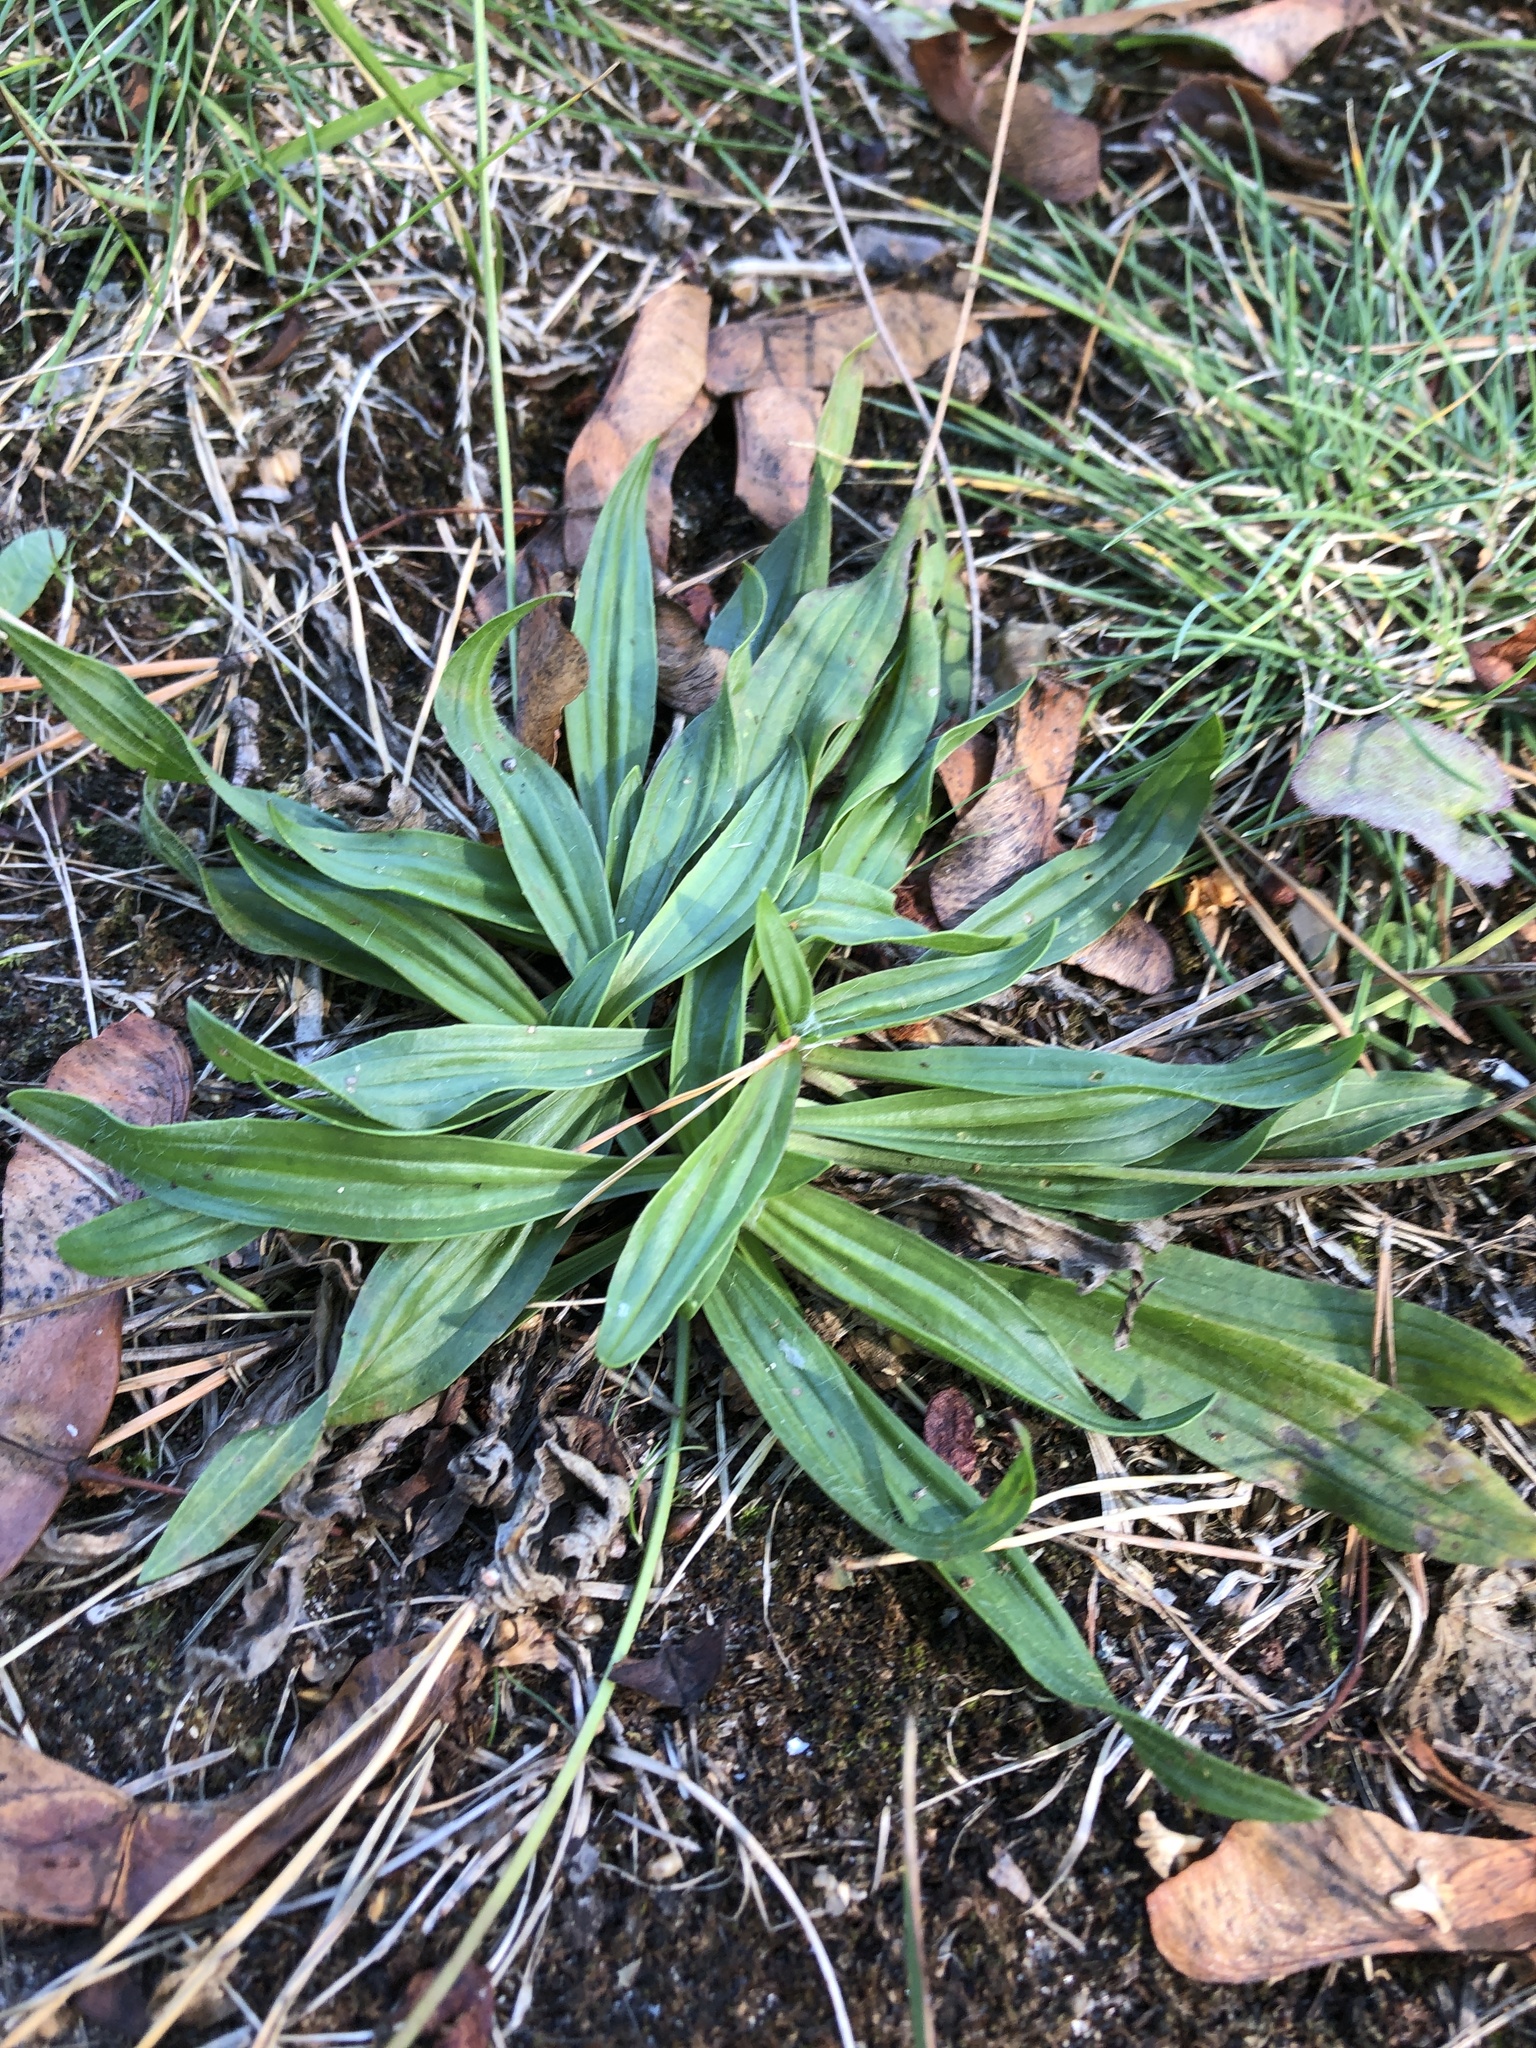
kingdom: Plantae
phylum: Tracheophyta
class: Magnoliopsida
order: Lamiales
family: Plantaginaceae
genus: Plantago
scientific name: Plantago lanceolata
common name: Ribwort plantain
